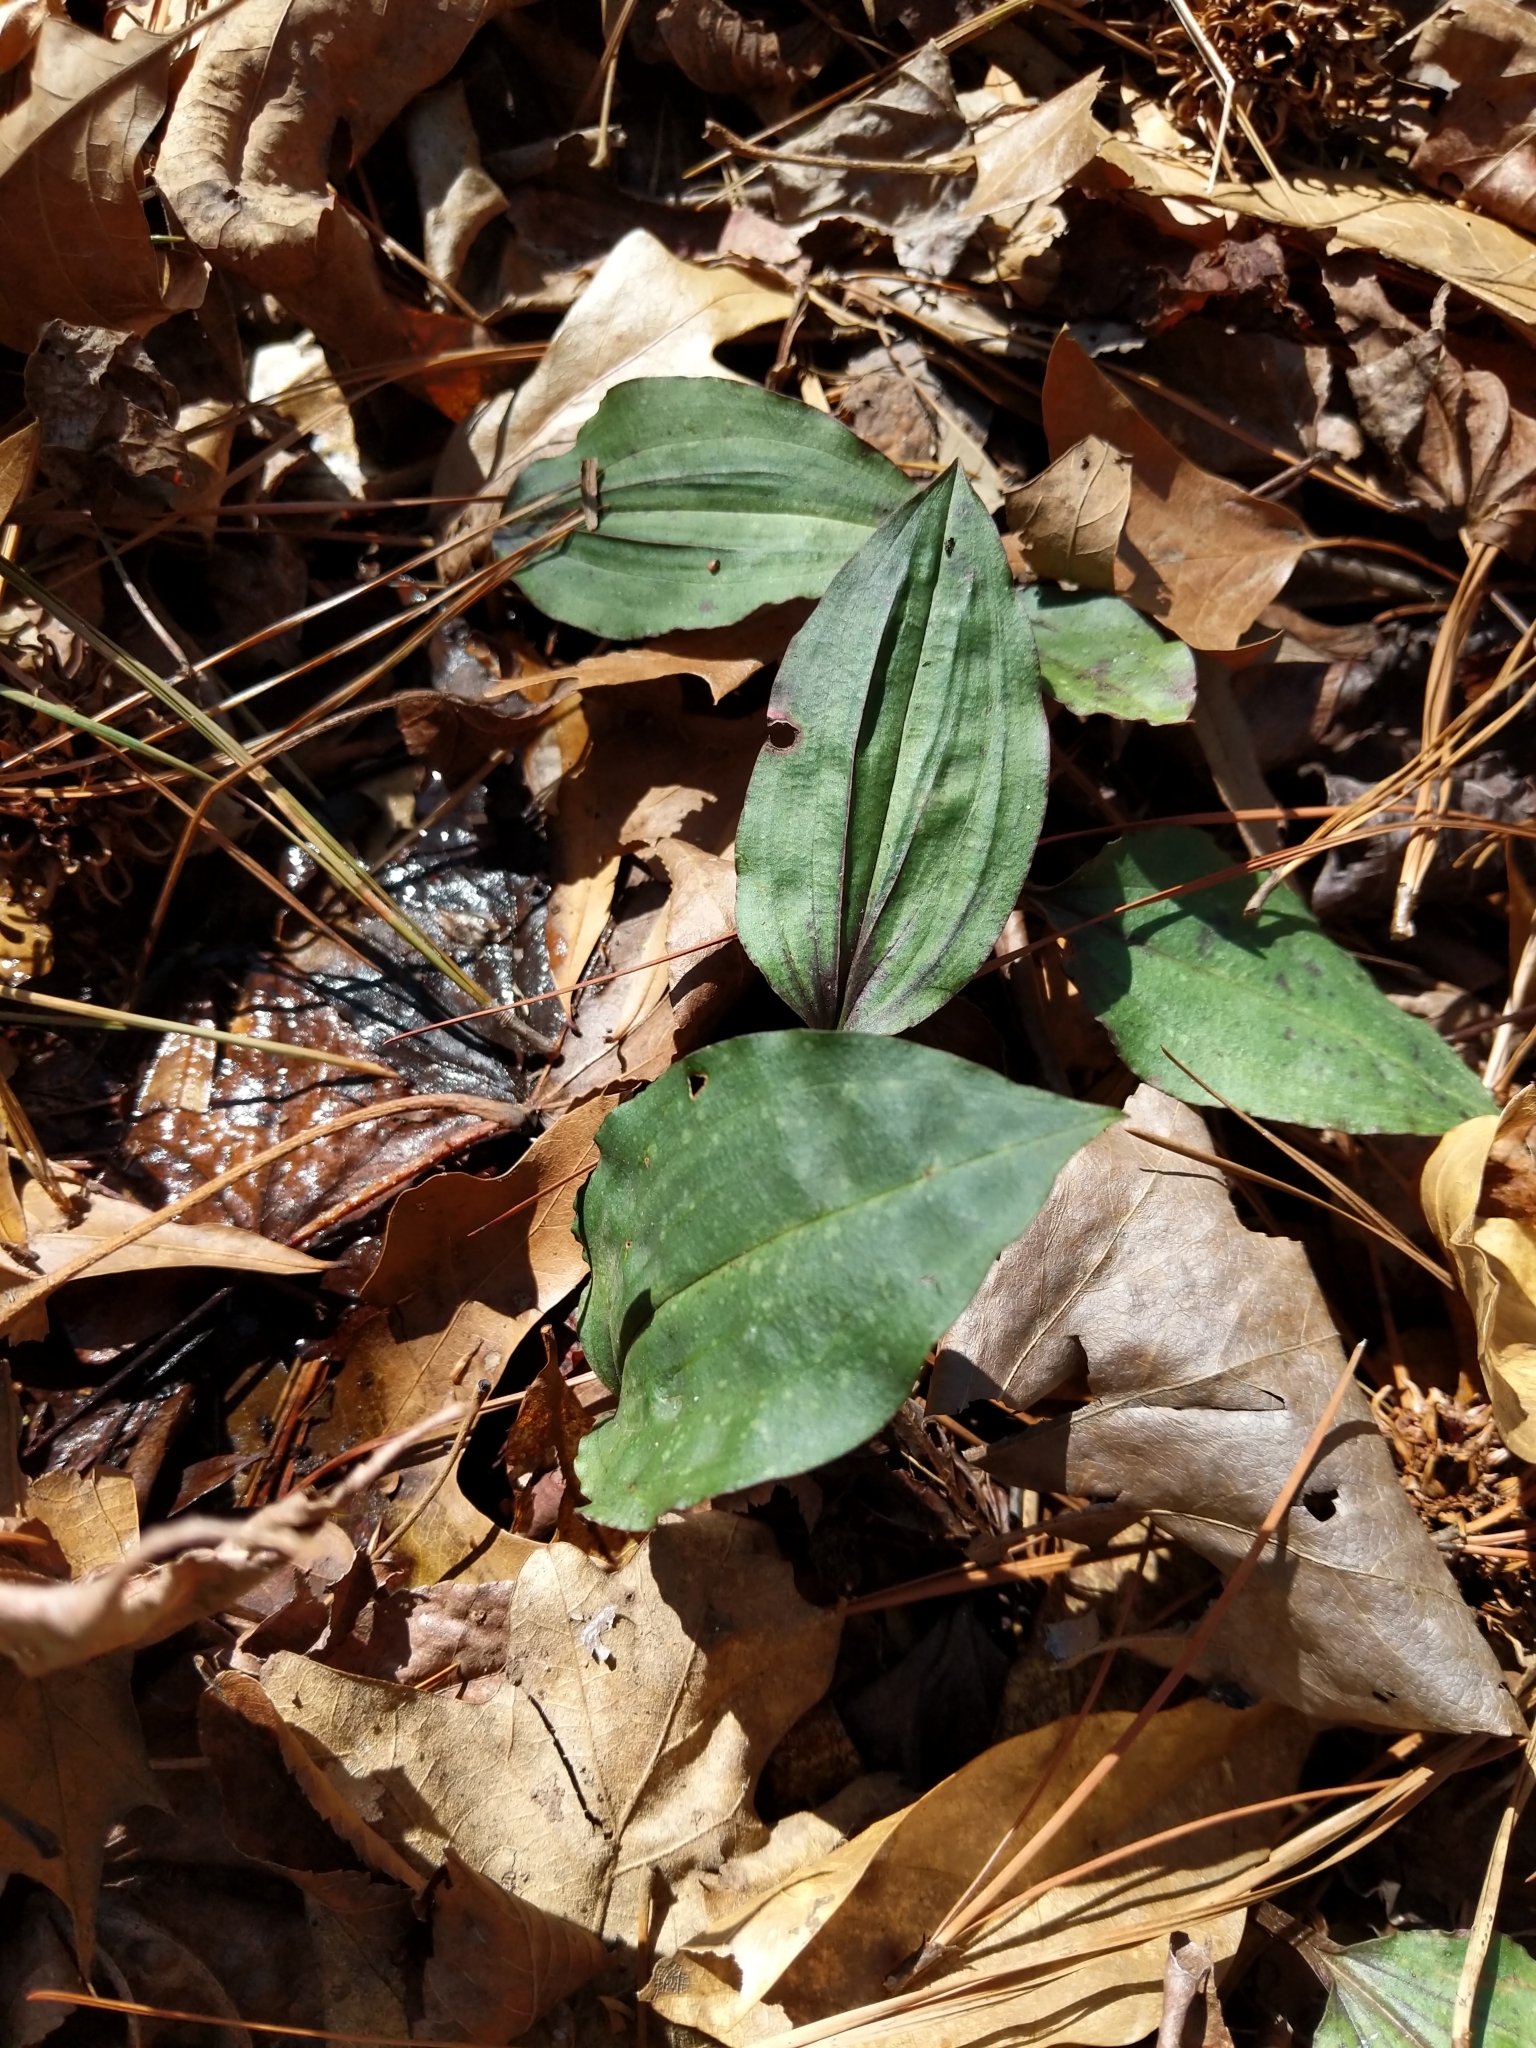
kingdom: Plantae
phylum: Tracheophyta
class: Liliopsida
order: Asparagales
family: Orchidaceae
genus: Tipularia
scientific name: Tipularia discolor
